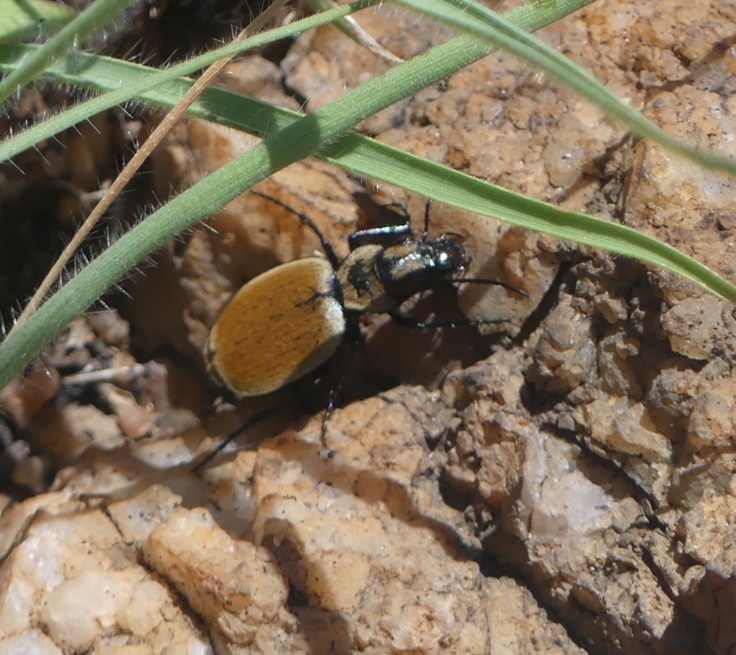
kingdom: Animalia
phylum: Arthropoda
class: Insecta
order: Coleoptera
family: Carabidae
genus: Graphipterus
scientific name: Graphipterus limbatus
